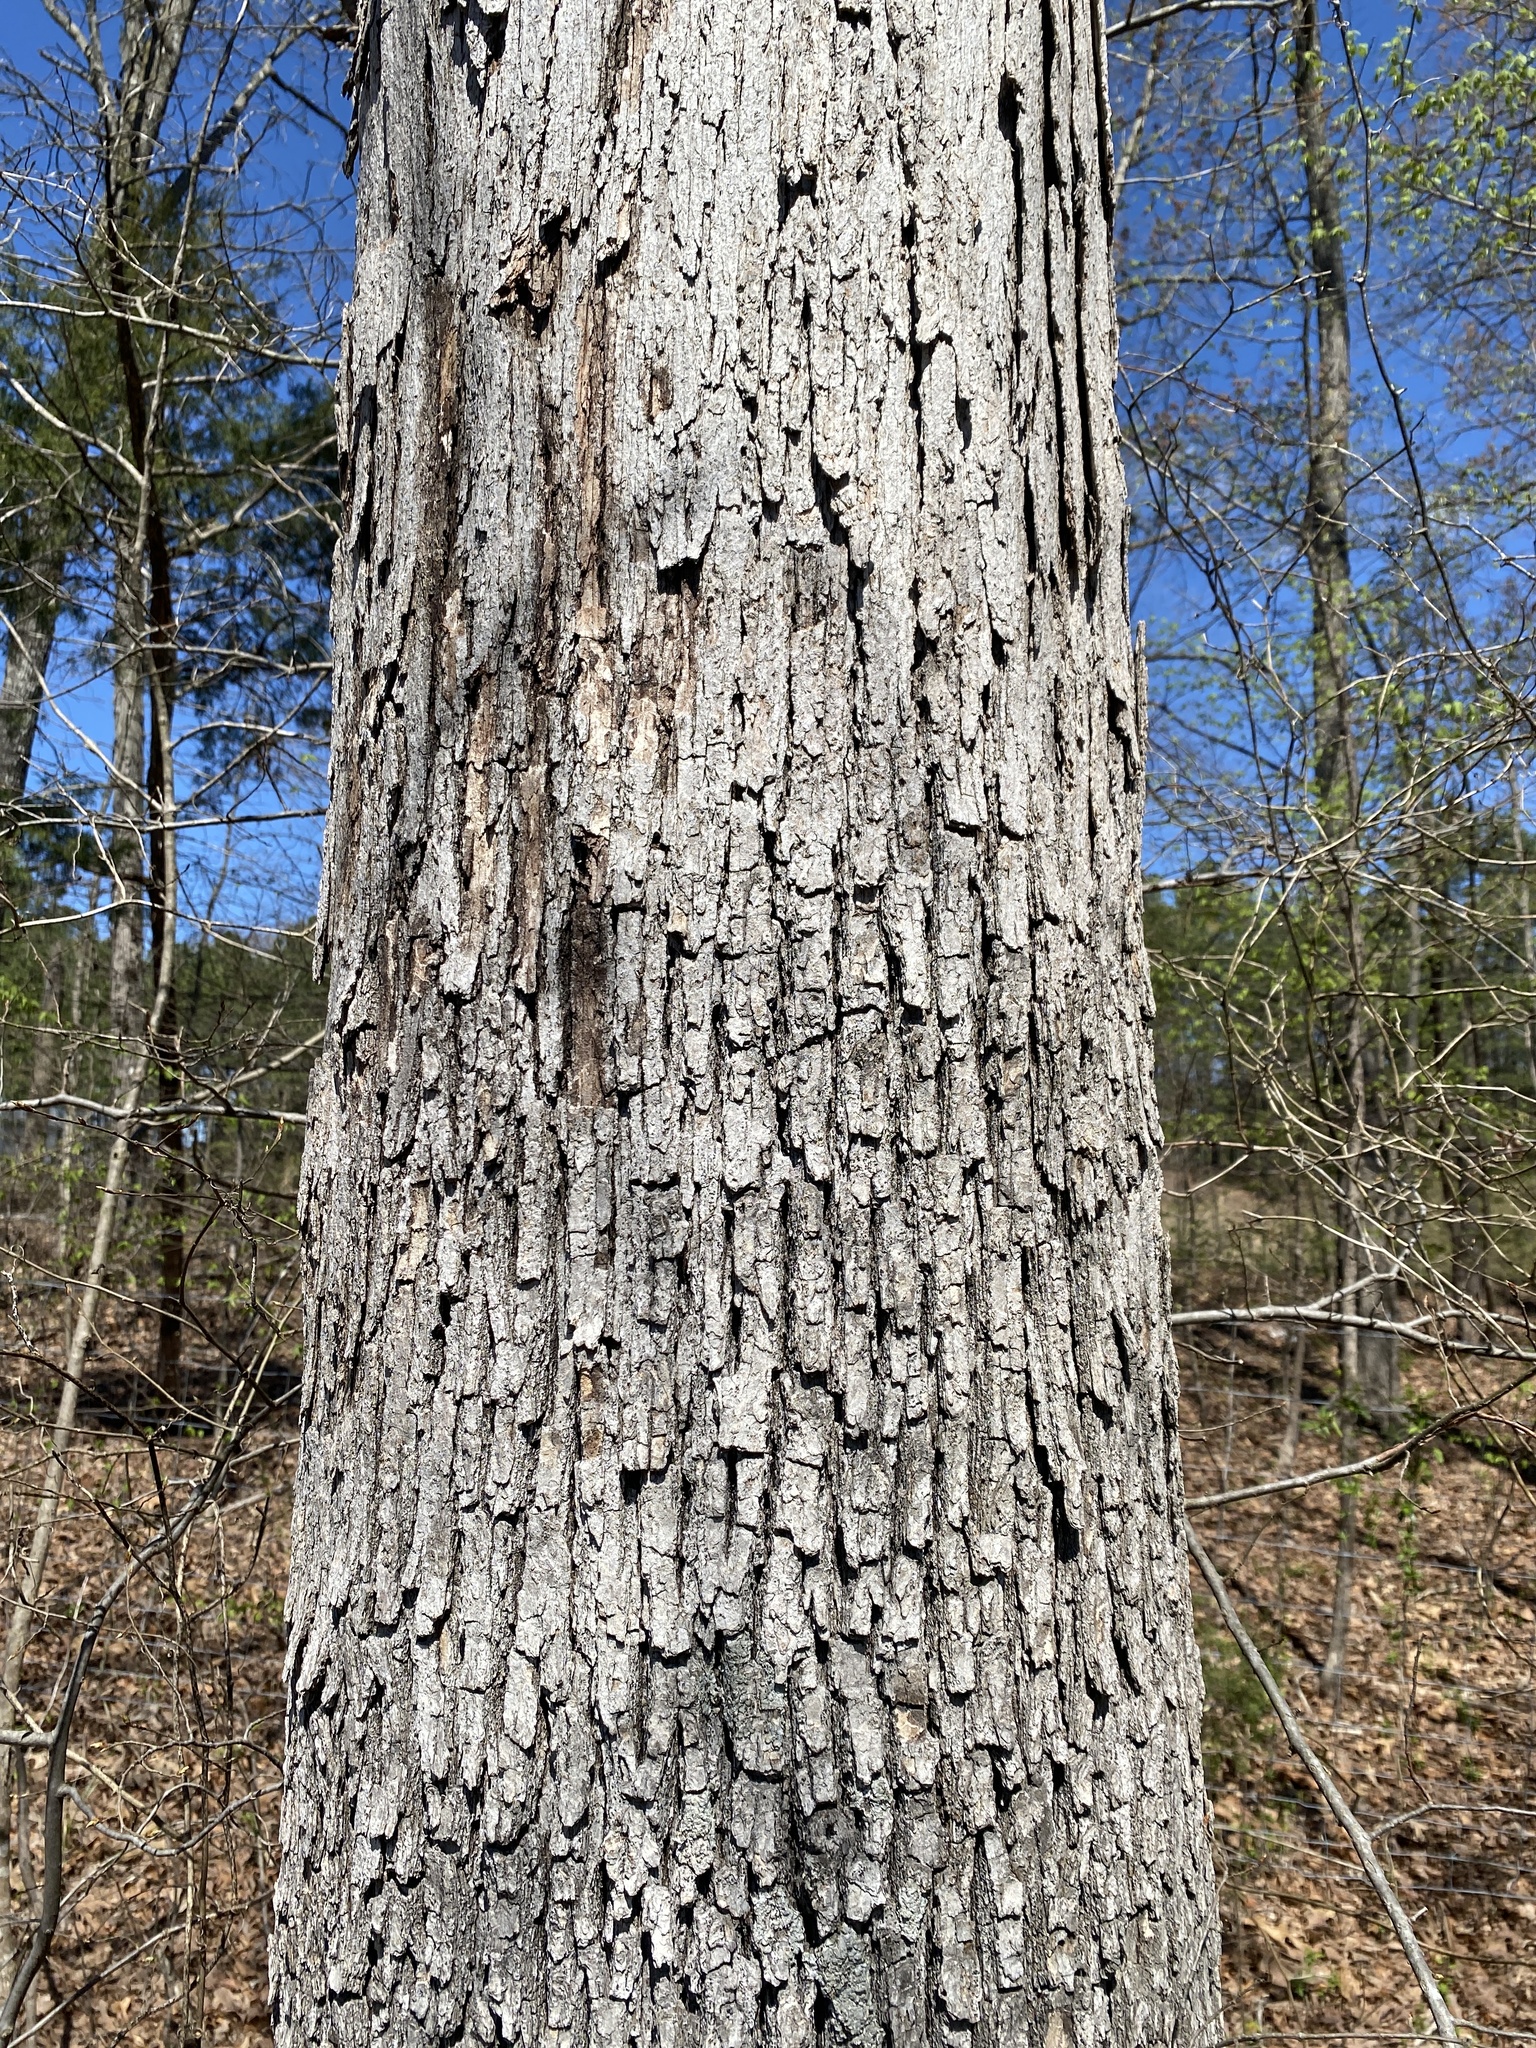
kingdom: Plantae
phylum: Tracheophyta
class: Magnoliopsida
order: Fagales
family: Fagaceae
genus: Quercus
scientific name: Quercus alba
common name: White oak
